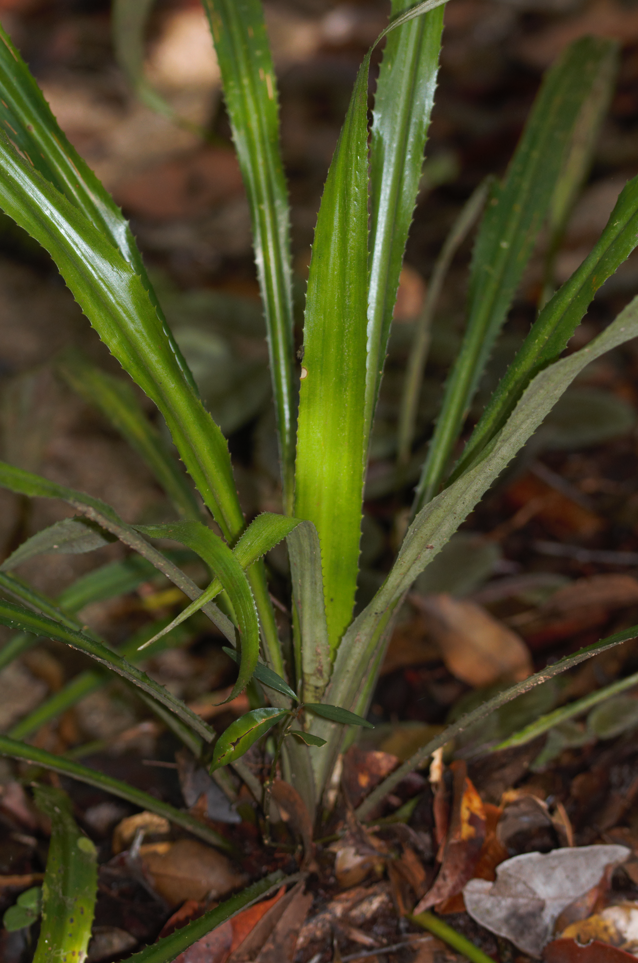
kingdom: Plantae
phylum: Tracheophyta
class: Liliopsida
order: Poales
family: Bromeliaceae
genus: Bromelia
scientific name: Bromelia fosteriana
